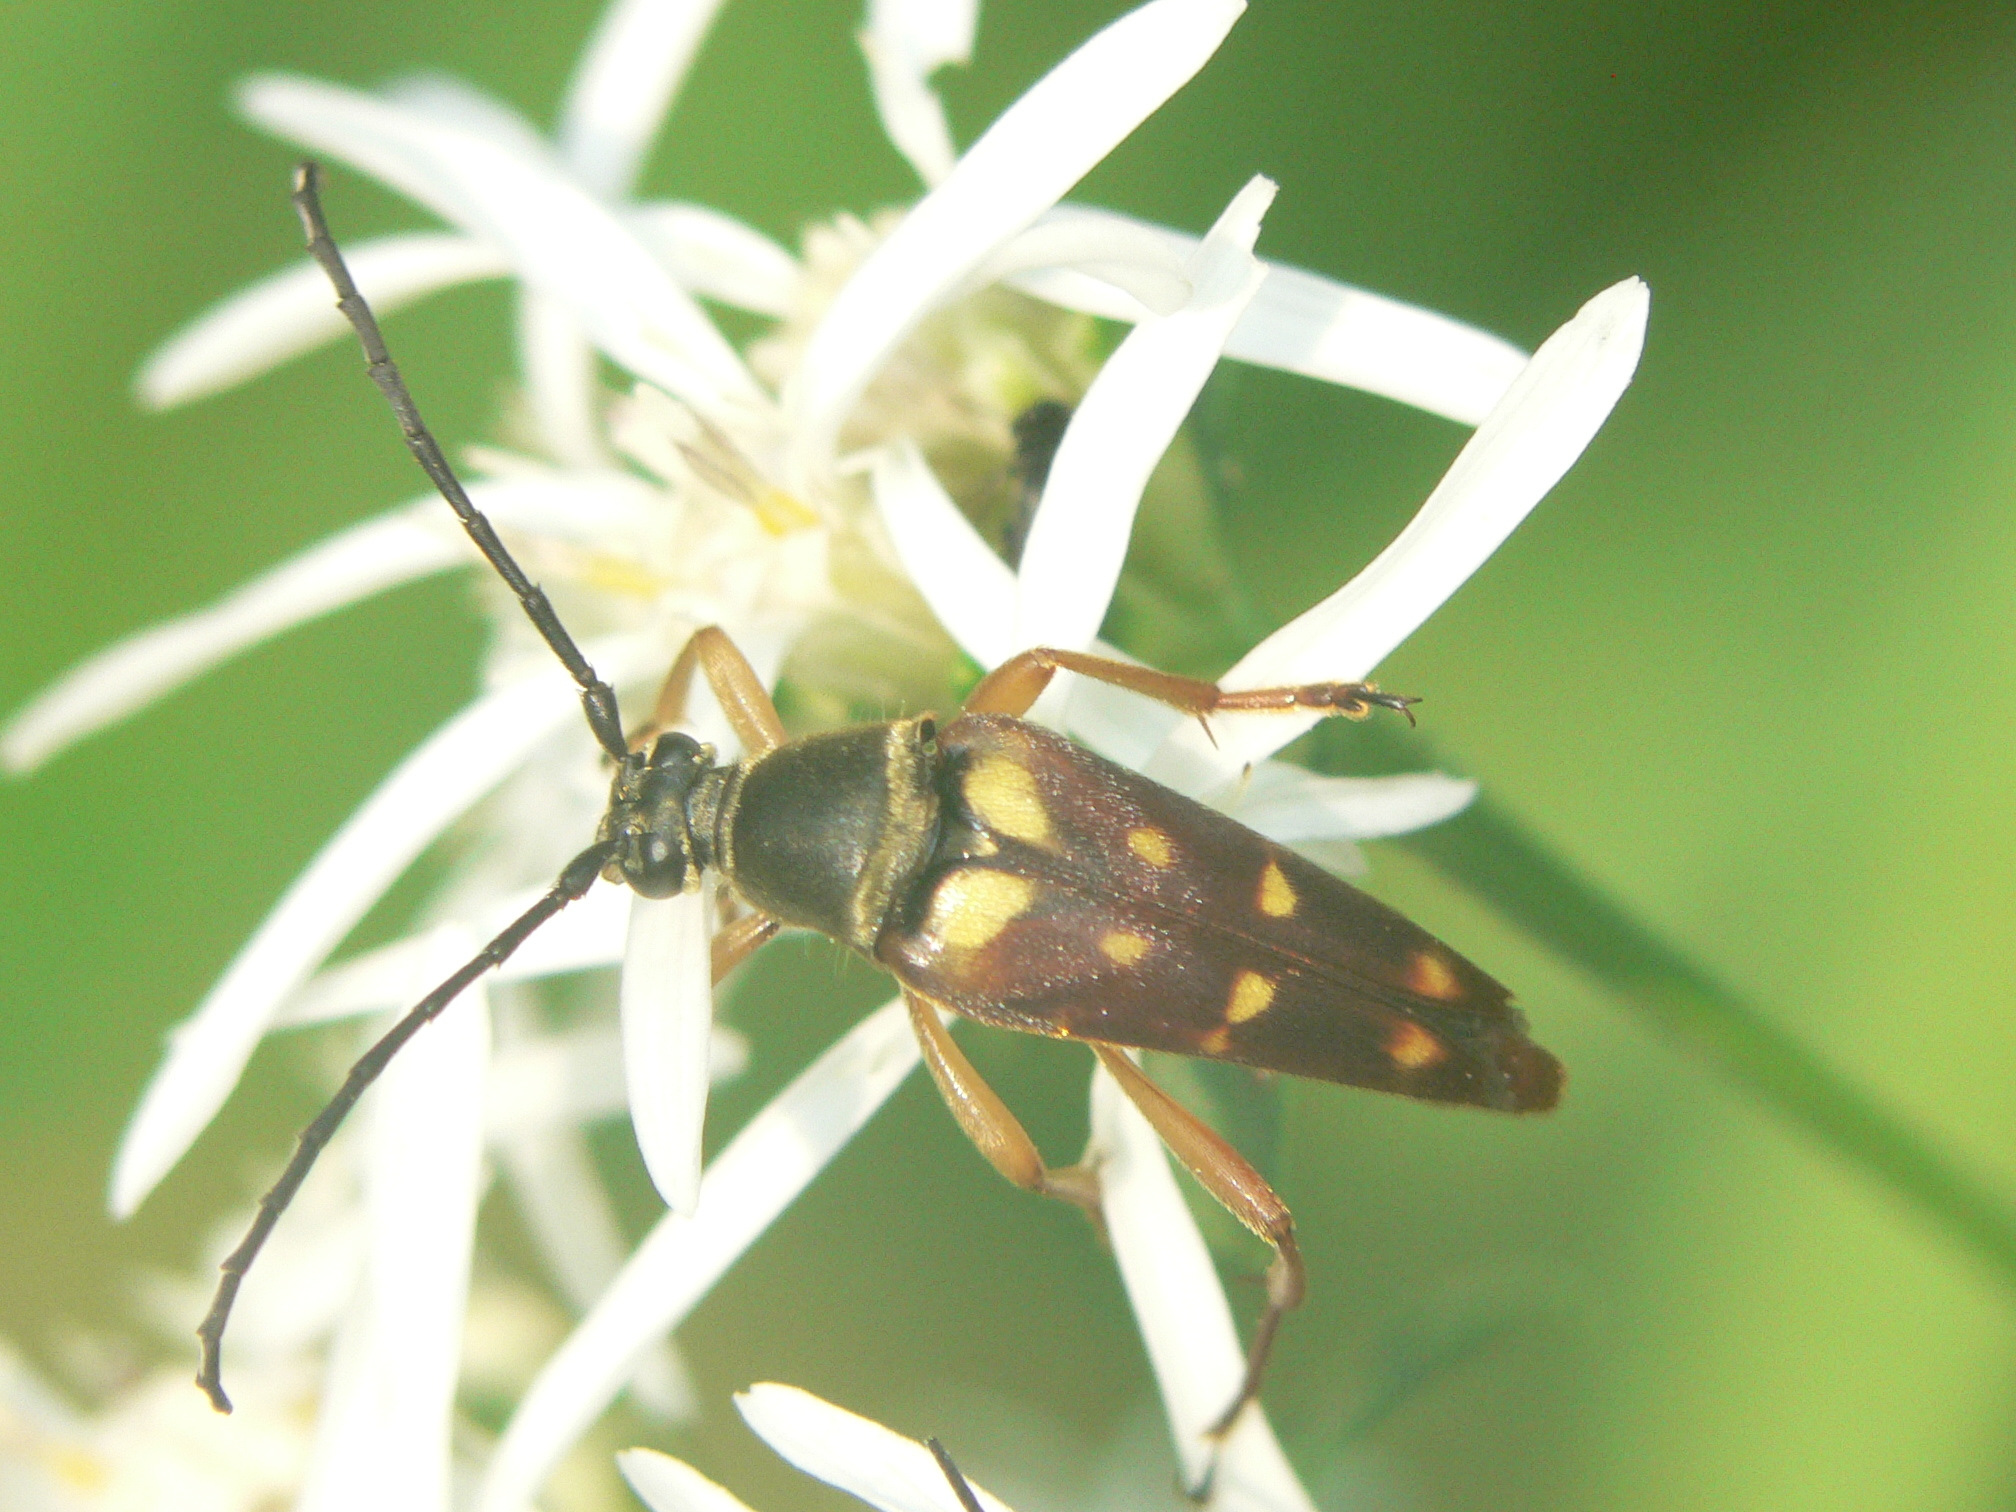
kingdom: Animalia
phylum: Arthropoda
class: Insecta
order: Coleoptera
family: Cerambycidae
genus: Typocerus
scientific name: Typocerus velutinus
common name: Banded longhorn beetle
